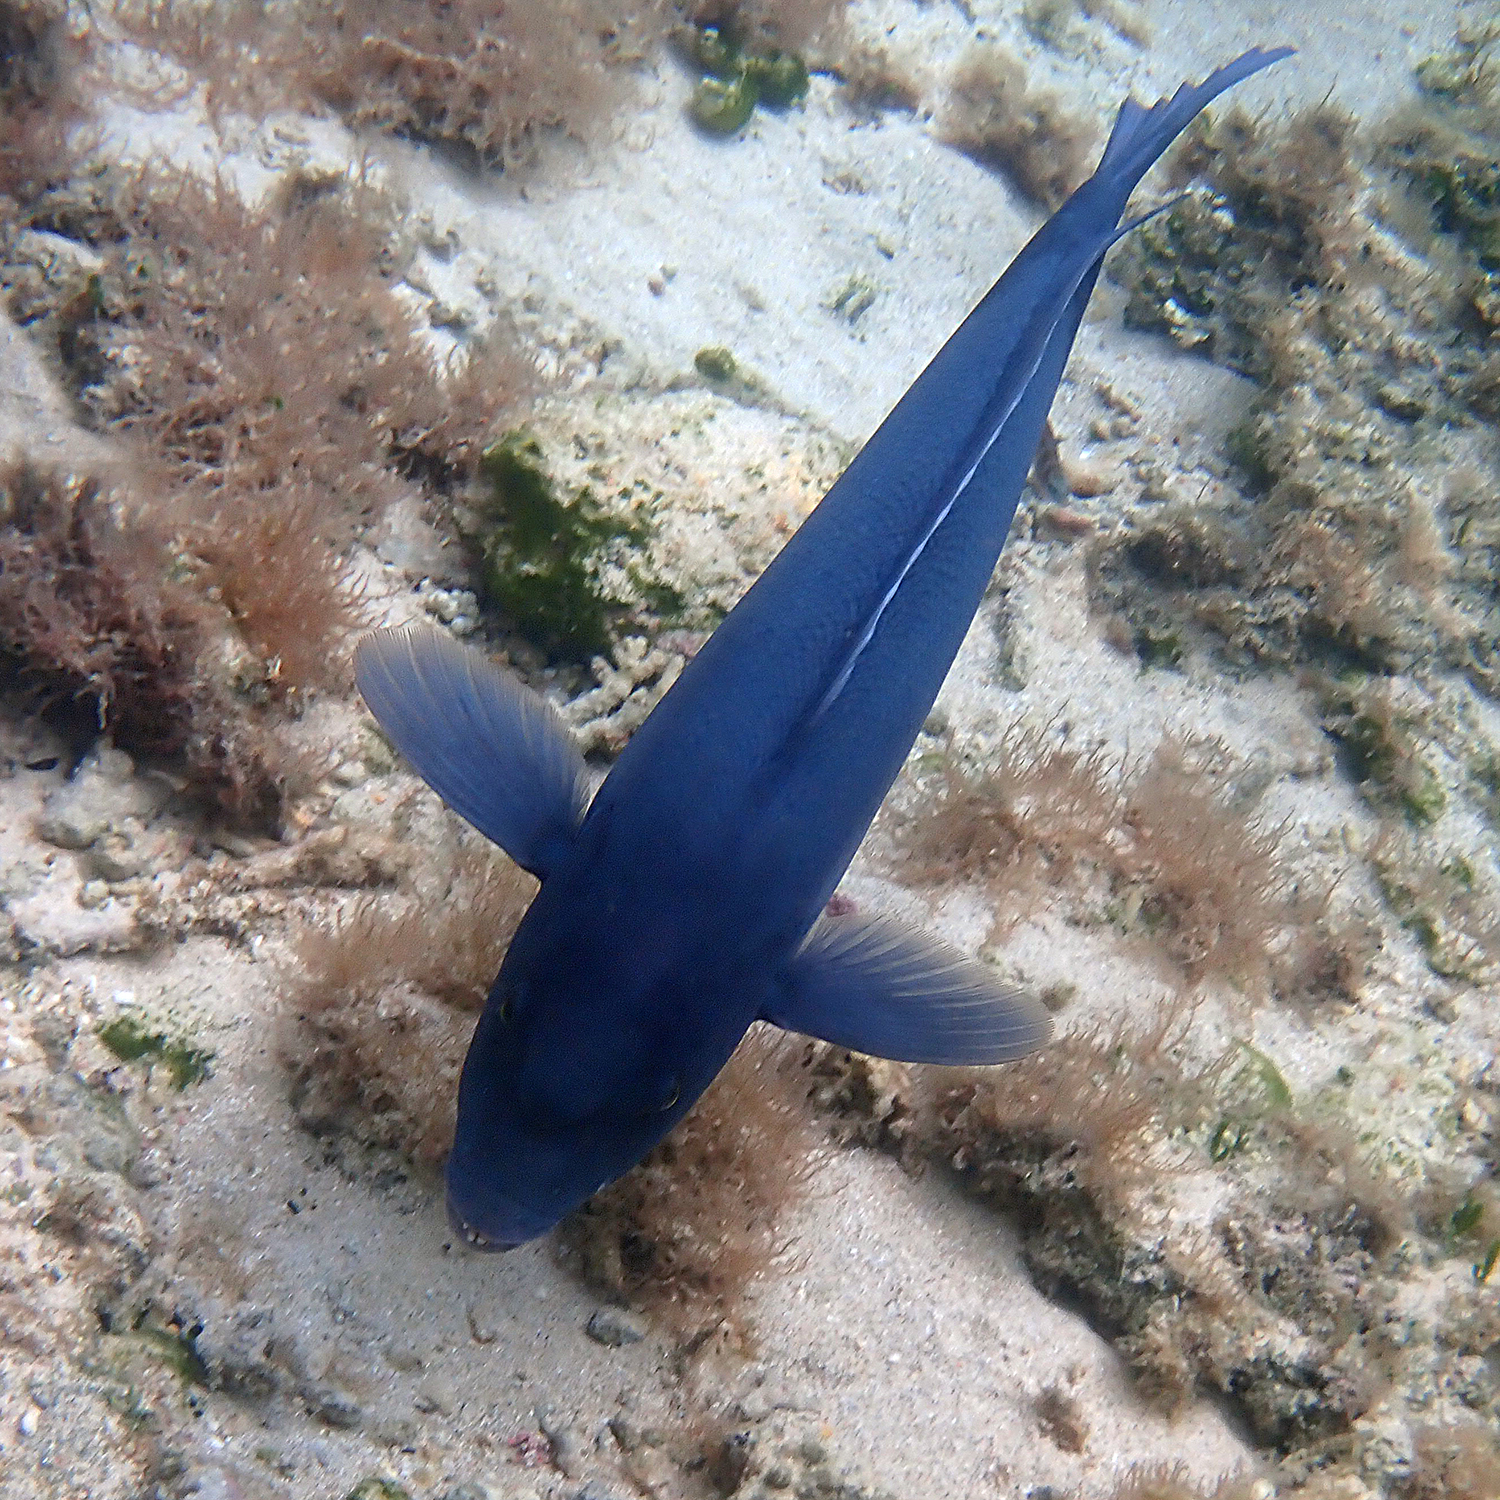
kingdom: Animalia
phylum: Chordata
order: Perciformes
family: Labridae
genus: Coris
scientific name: Coris bulbifrons
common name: Doubleheader
